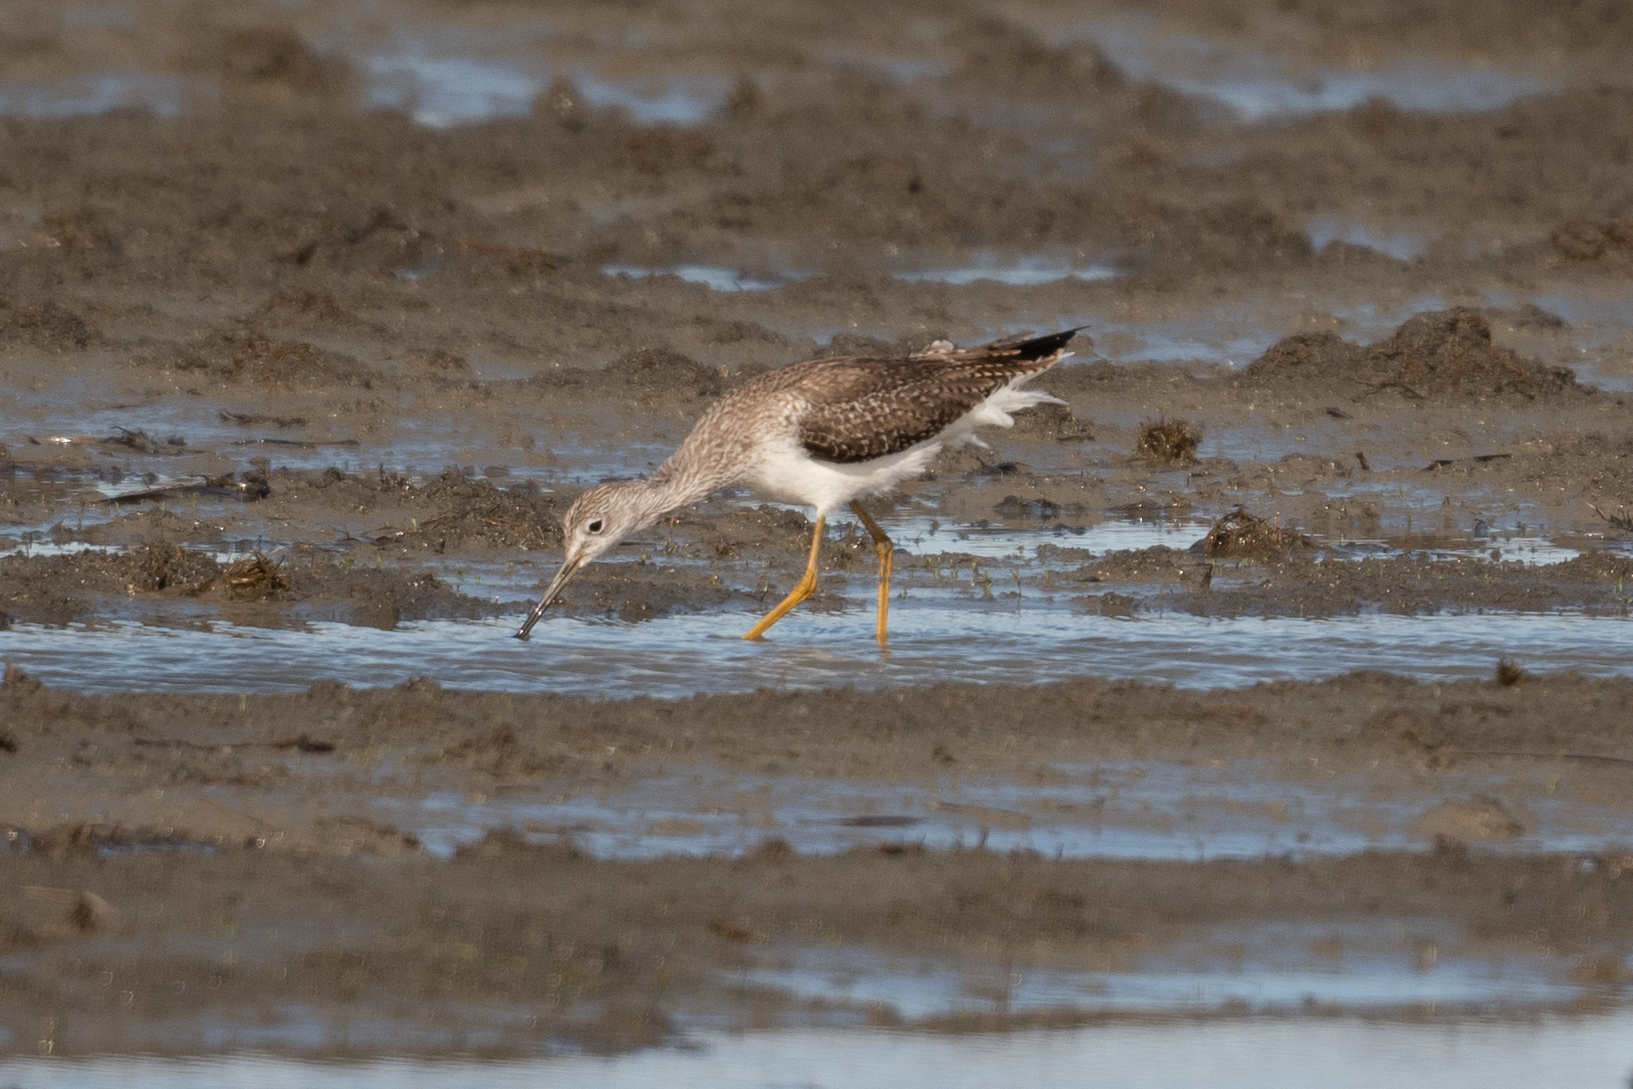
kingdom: Animalia
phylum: Chordata
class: Aves
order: Charadriiformes
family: Scolopacidae
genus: Tringa
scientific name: Tringa melanoleuca
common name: Greater yellowlegs
